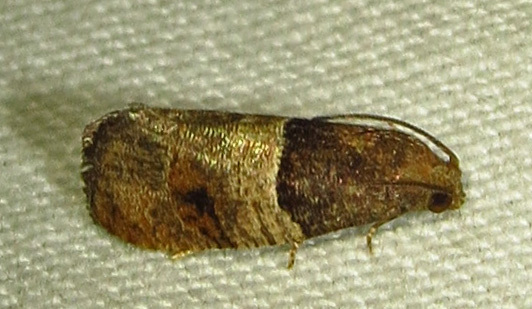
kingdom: Animalia
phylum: Arthropoda
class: Insecta
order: Lepidoptera
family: Tortricidae
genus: Larisa
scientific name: Larisa subsolana
